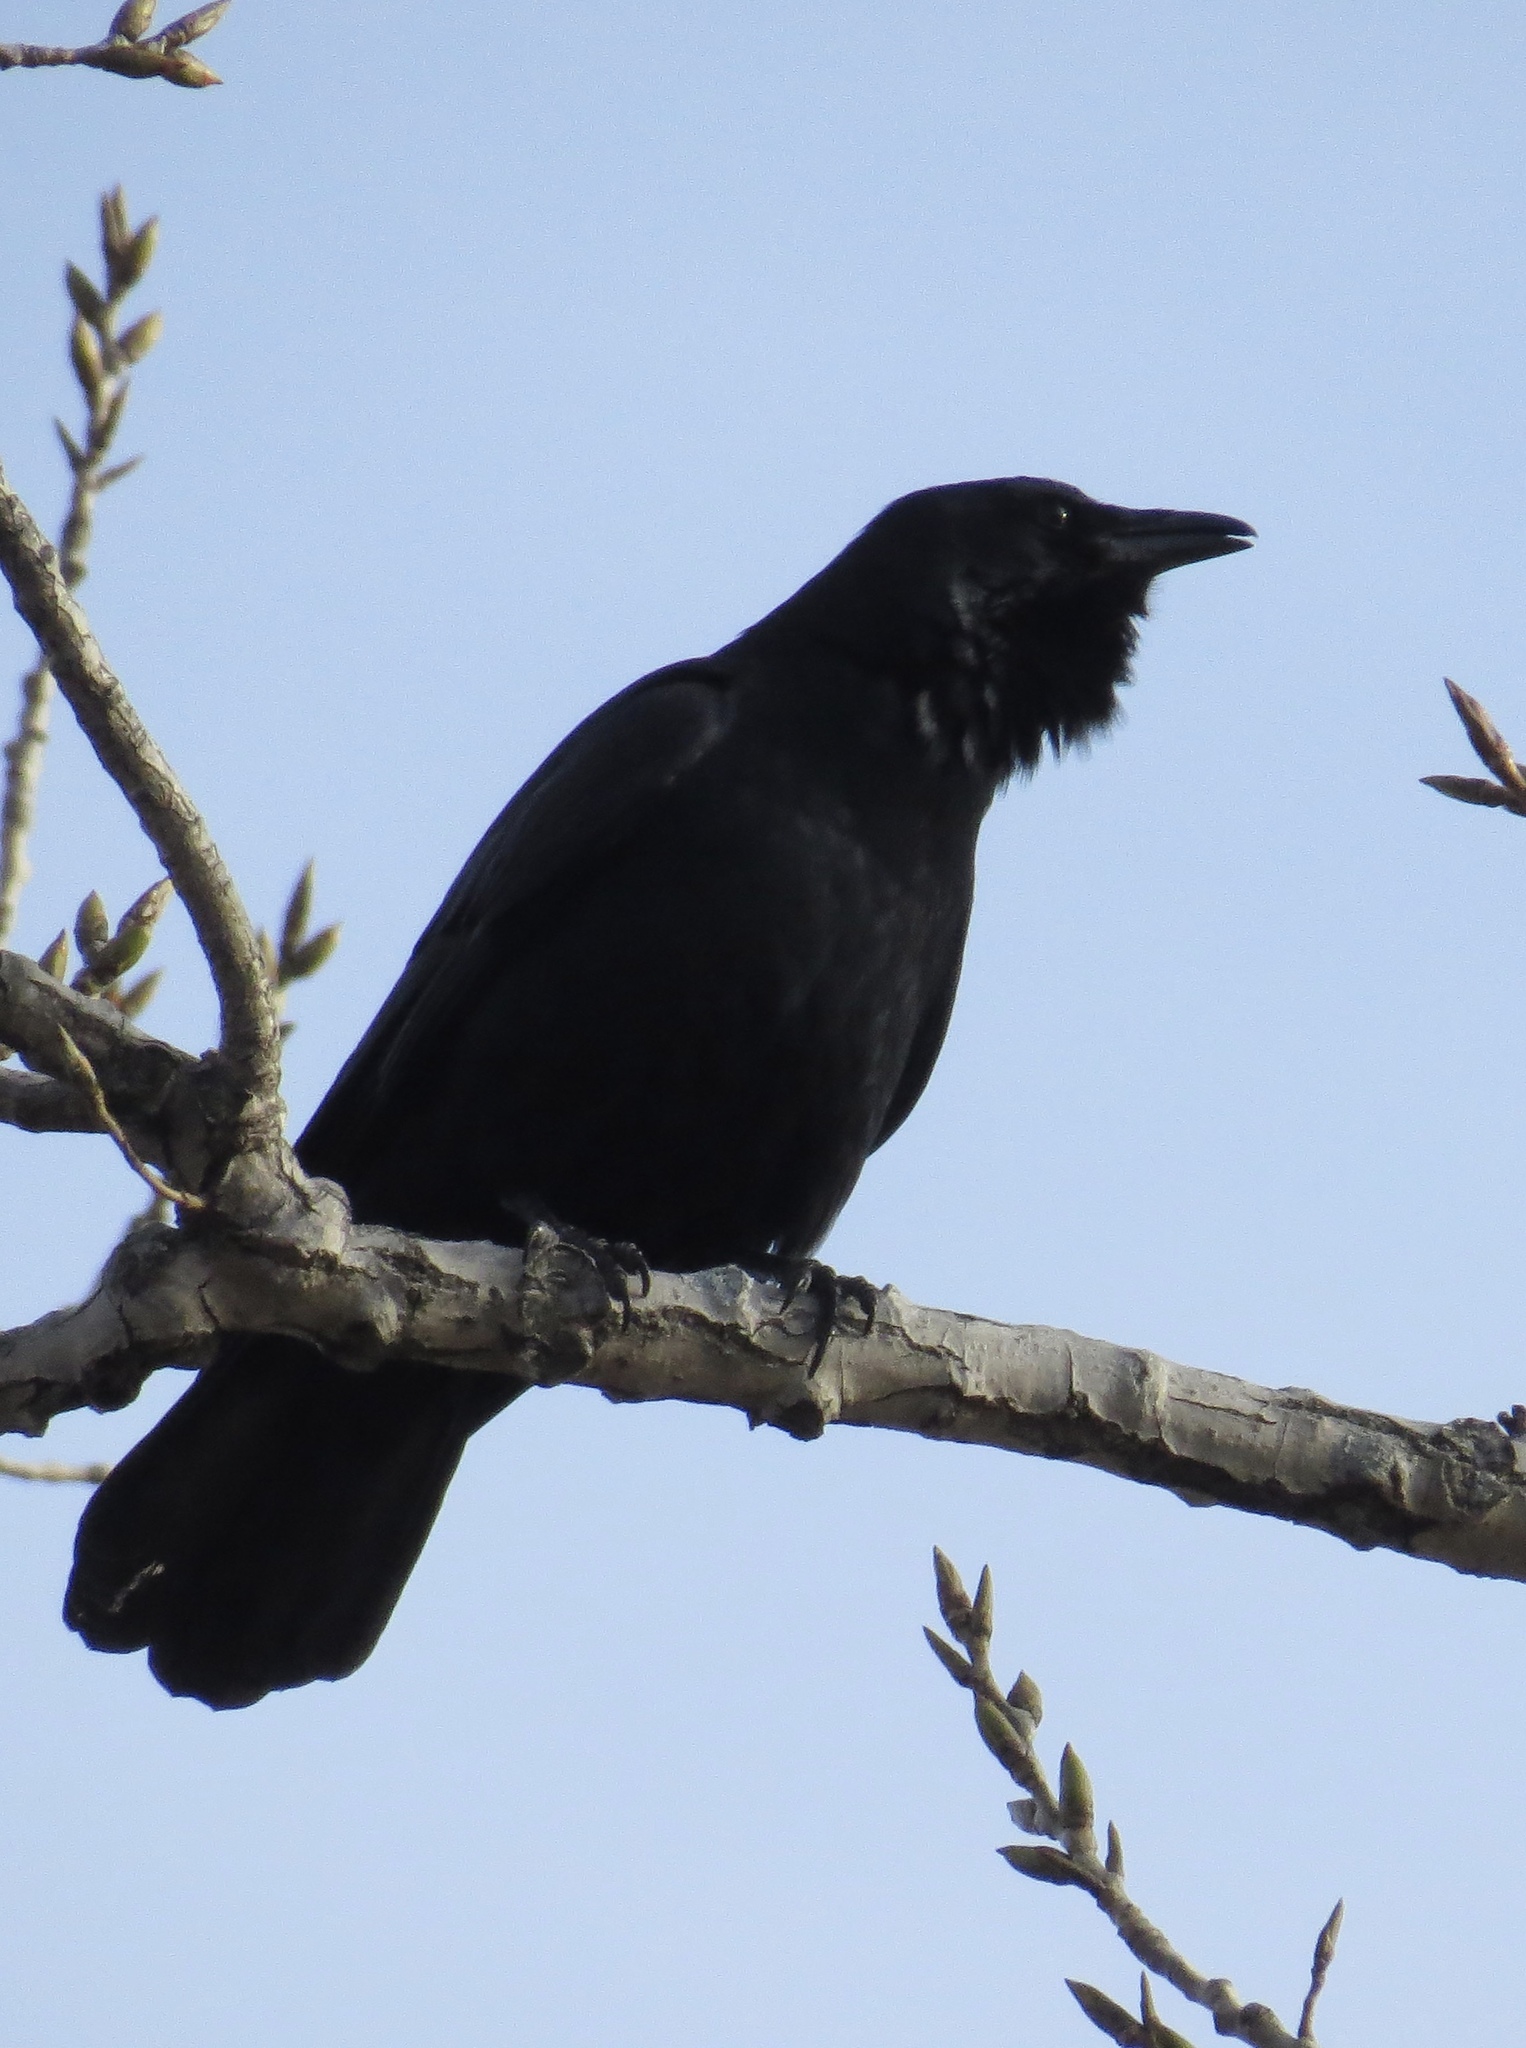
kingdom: Animalia
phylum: Chordata
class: Aves
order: Passeriformes
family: Corvidae
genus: Corvus
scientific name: Corvus brachyrhynchos
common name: American crow
